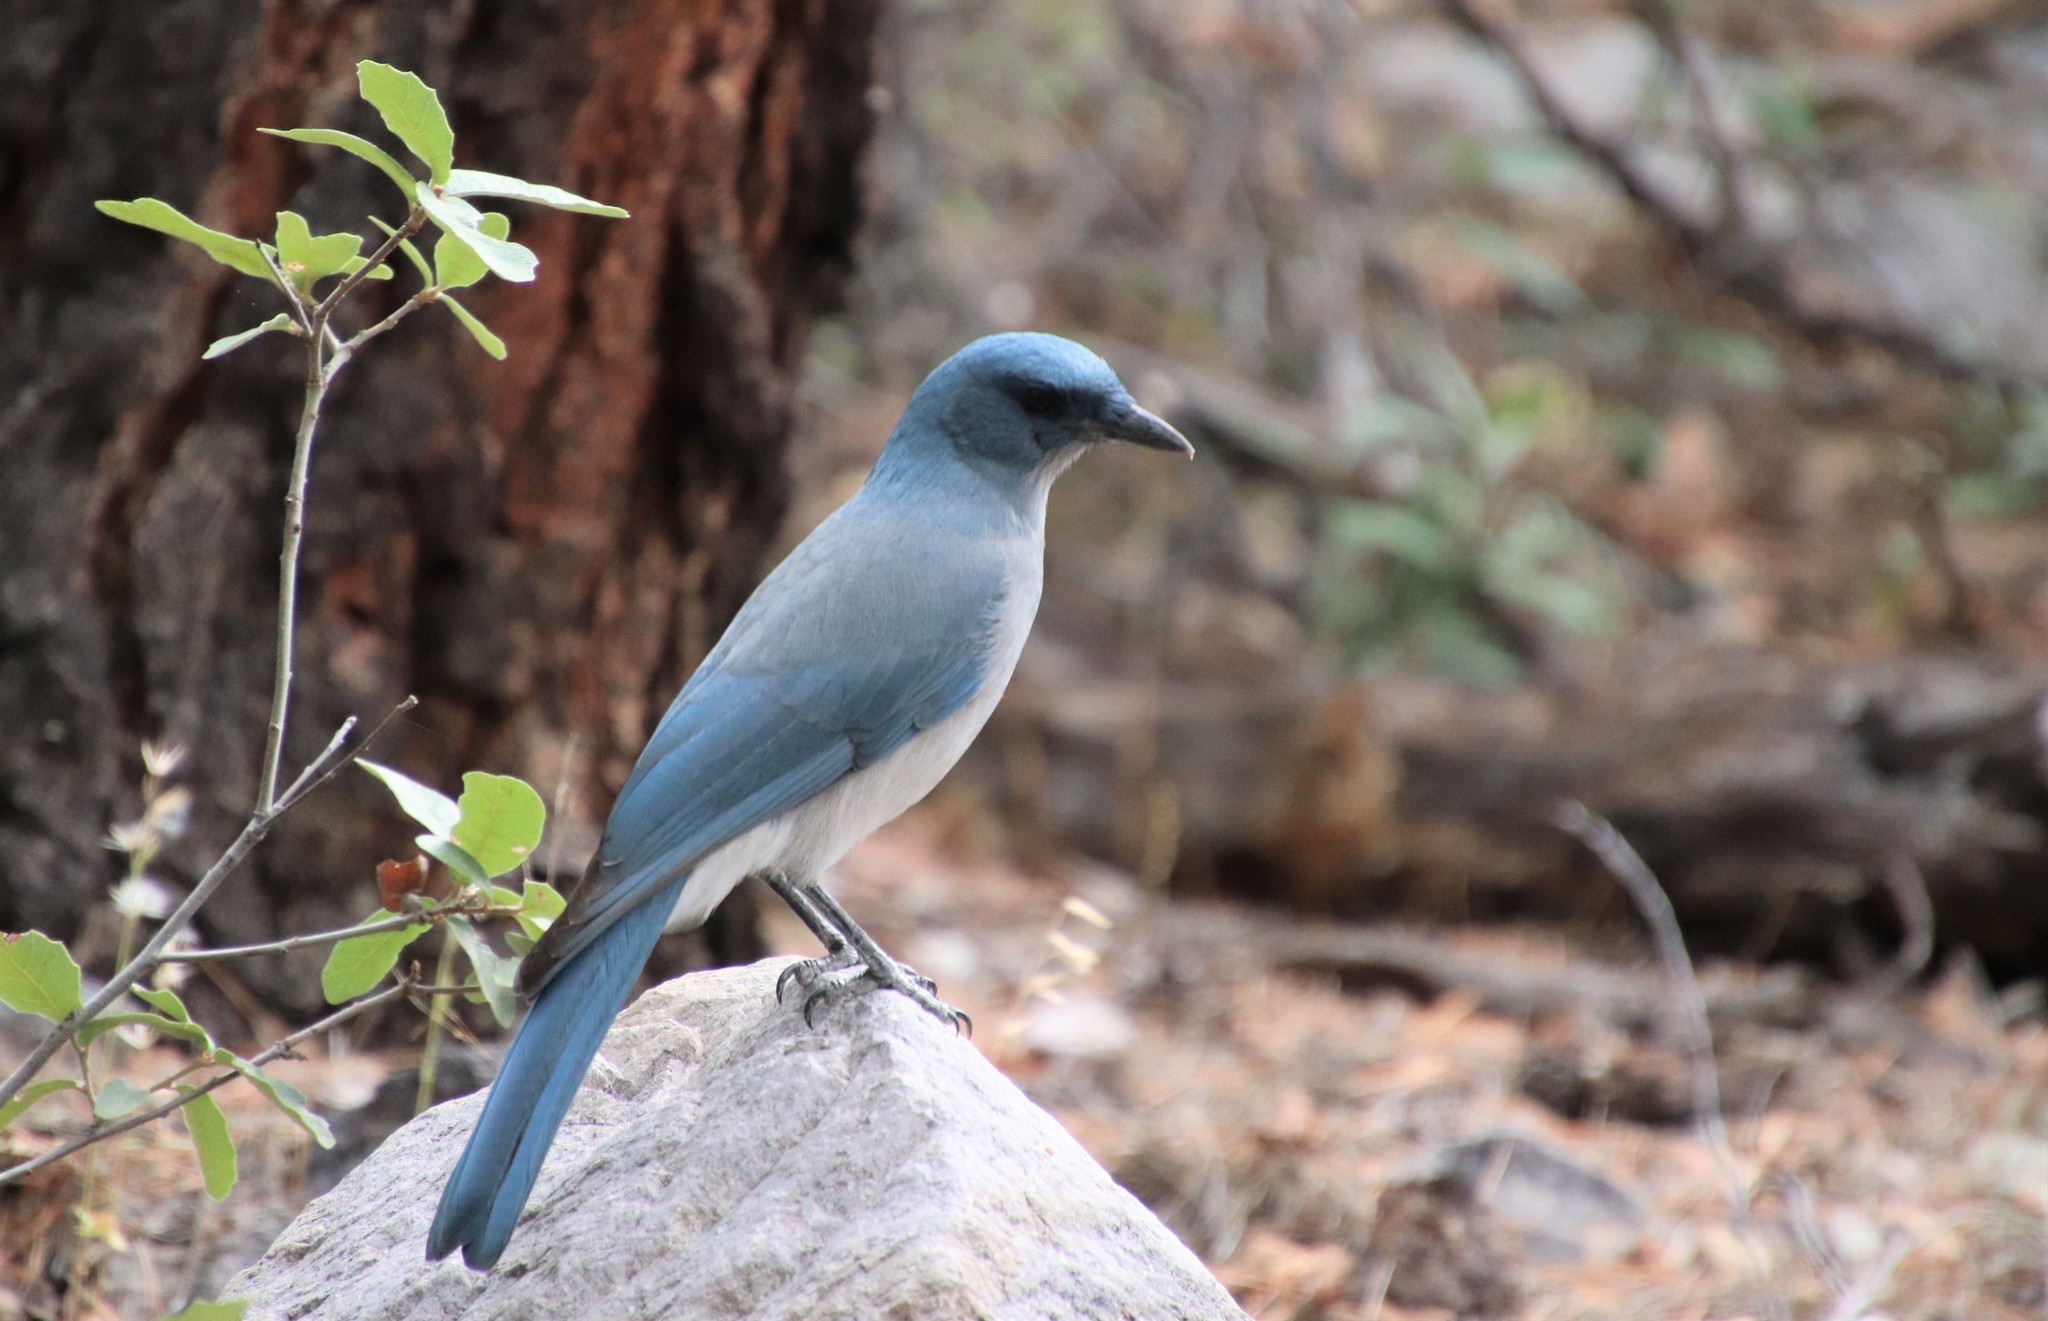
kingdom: Animalia
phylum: Chordata
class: Aves
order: Passeriformes
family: Corvidae
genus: Aphelocoma
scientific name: Aphelocoma wollweberi
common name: Mexican jay
